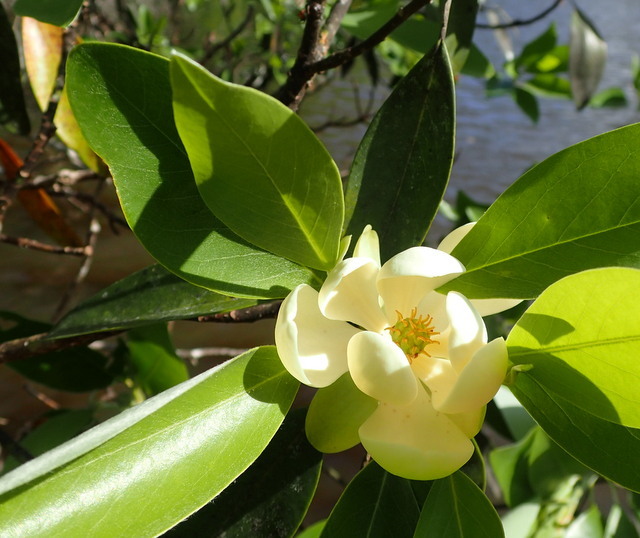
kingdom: Plantae
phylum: Tracheophyta
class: Magnoliopsida
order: Magnoliales
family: Magnoliaceae
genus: Magnolia
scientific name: Magnolia virginiana
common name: Swamp bay
